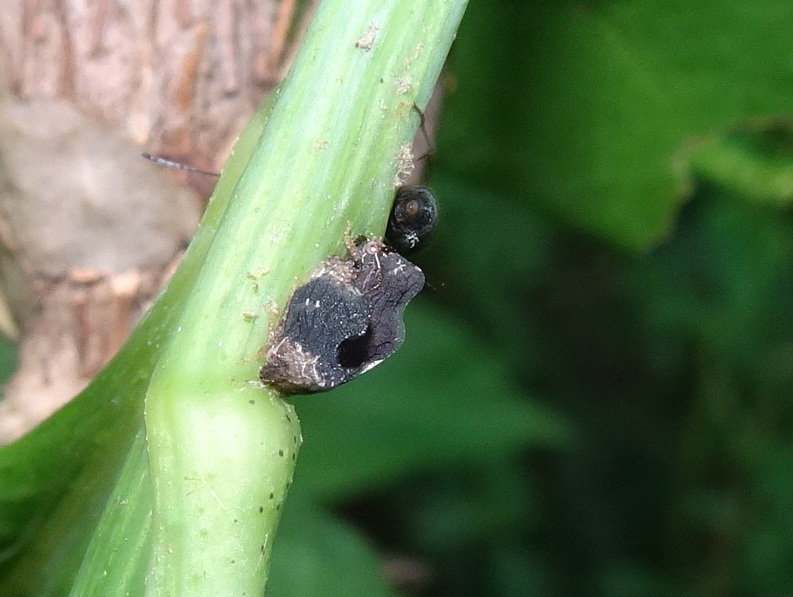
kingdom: Animalia
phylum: Arthropoda
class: Insecta
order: Hemiptera
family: Membracidae
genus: Publilia
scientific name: Publilia concava
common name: Aster treehopper
